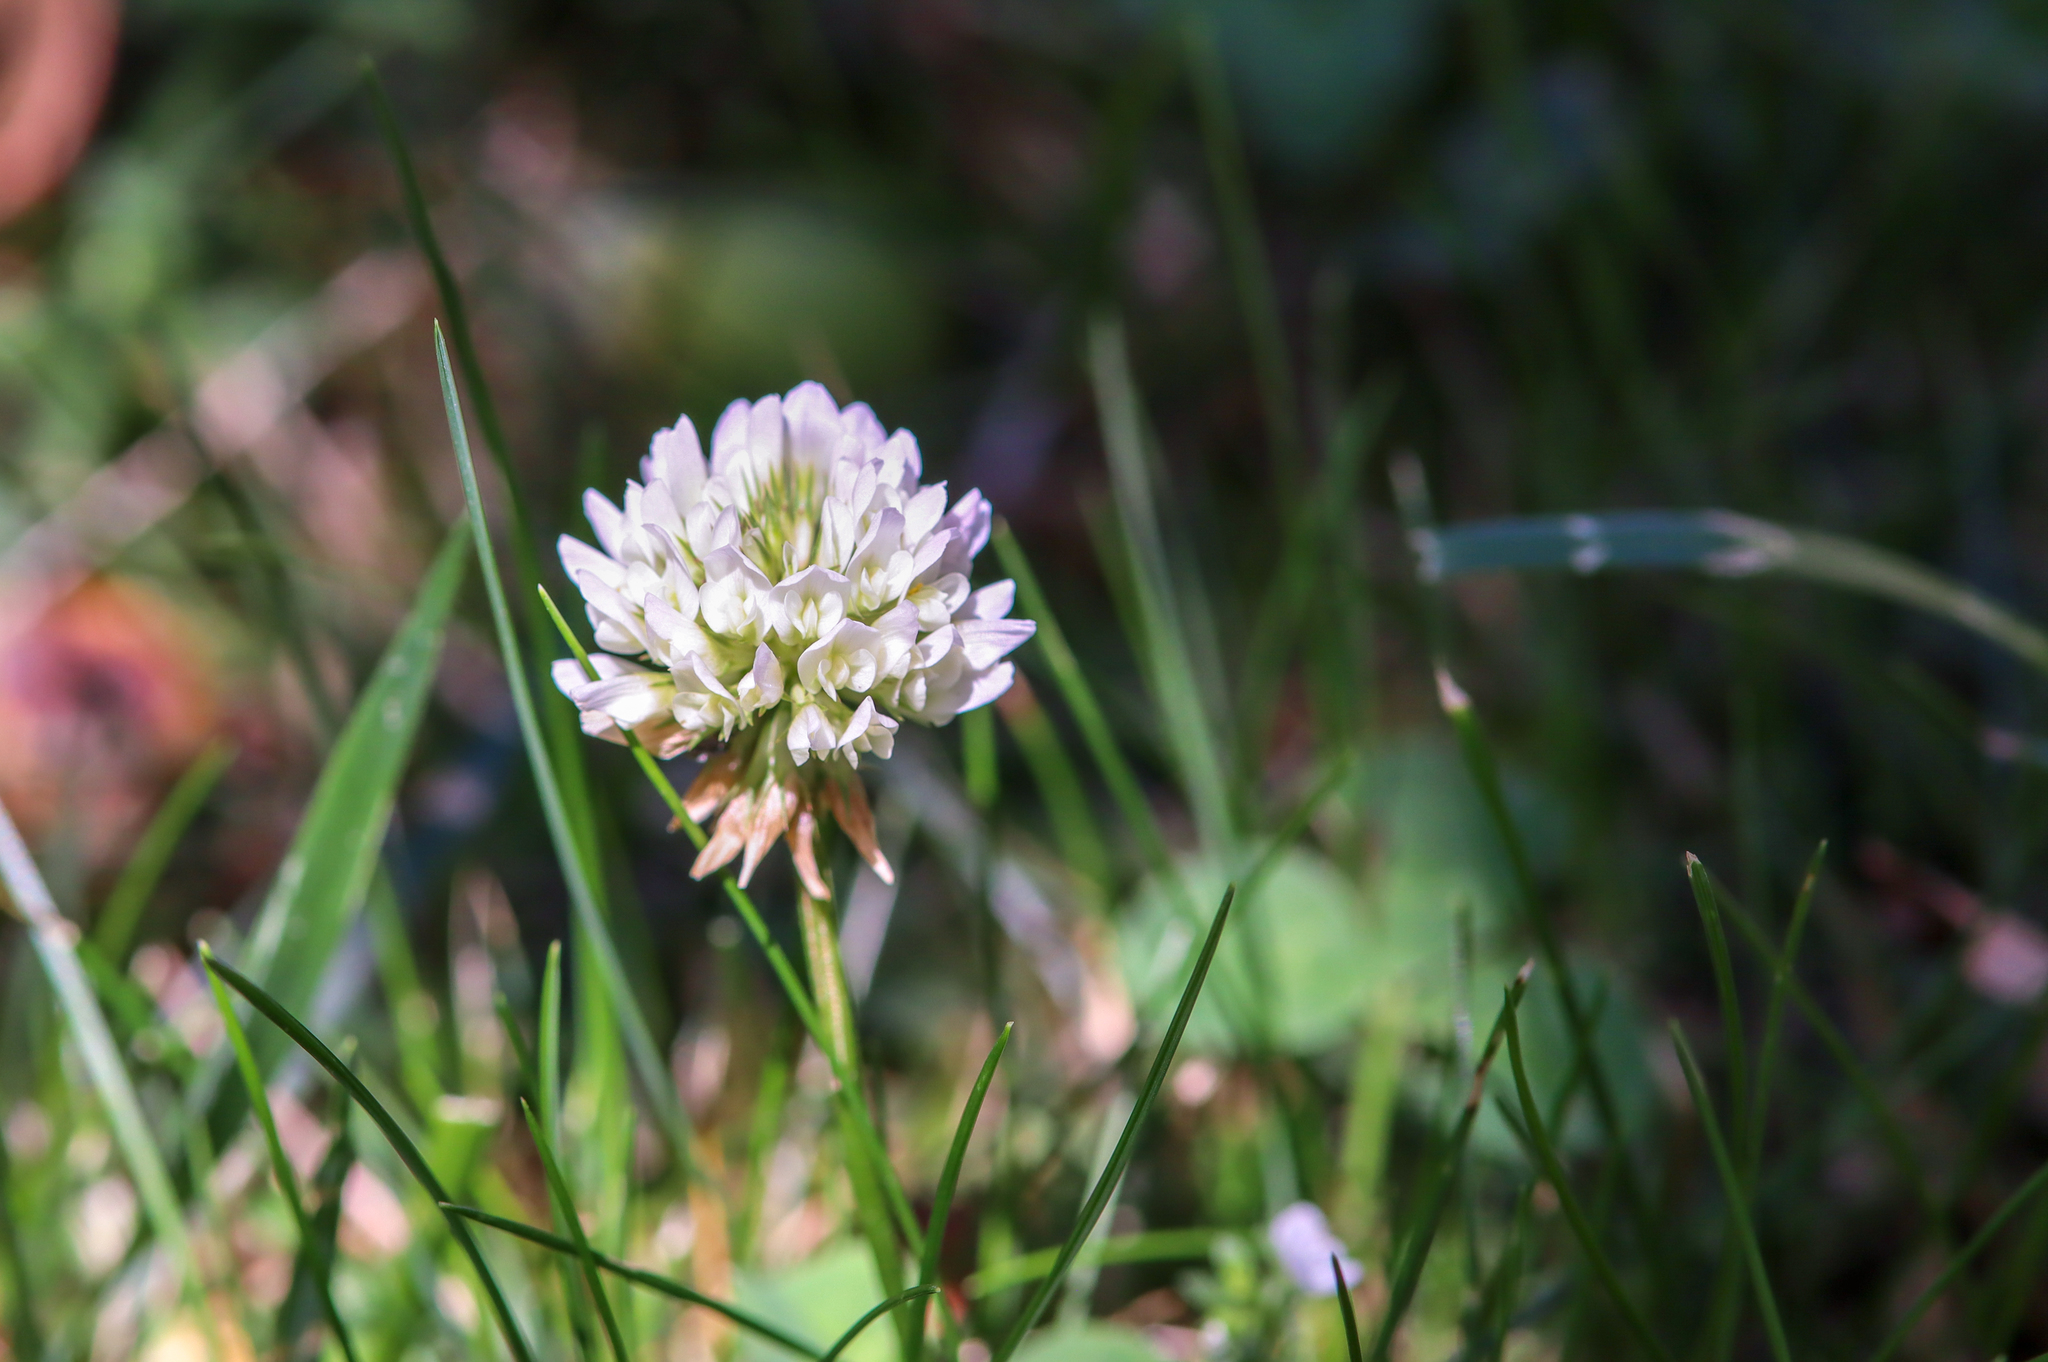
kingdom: Plantae
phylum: Tracheophyta
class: Magnoliopsida
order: Fabales
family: Fabaceae
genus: Trifolium
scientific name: Trifolium repens
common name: White clover
